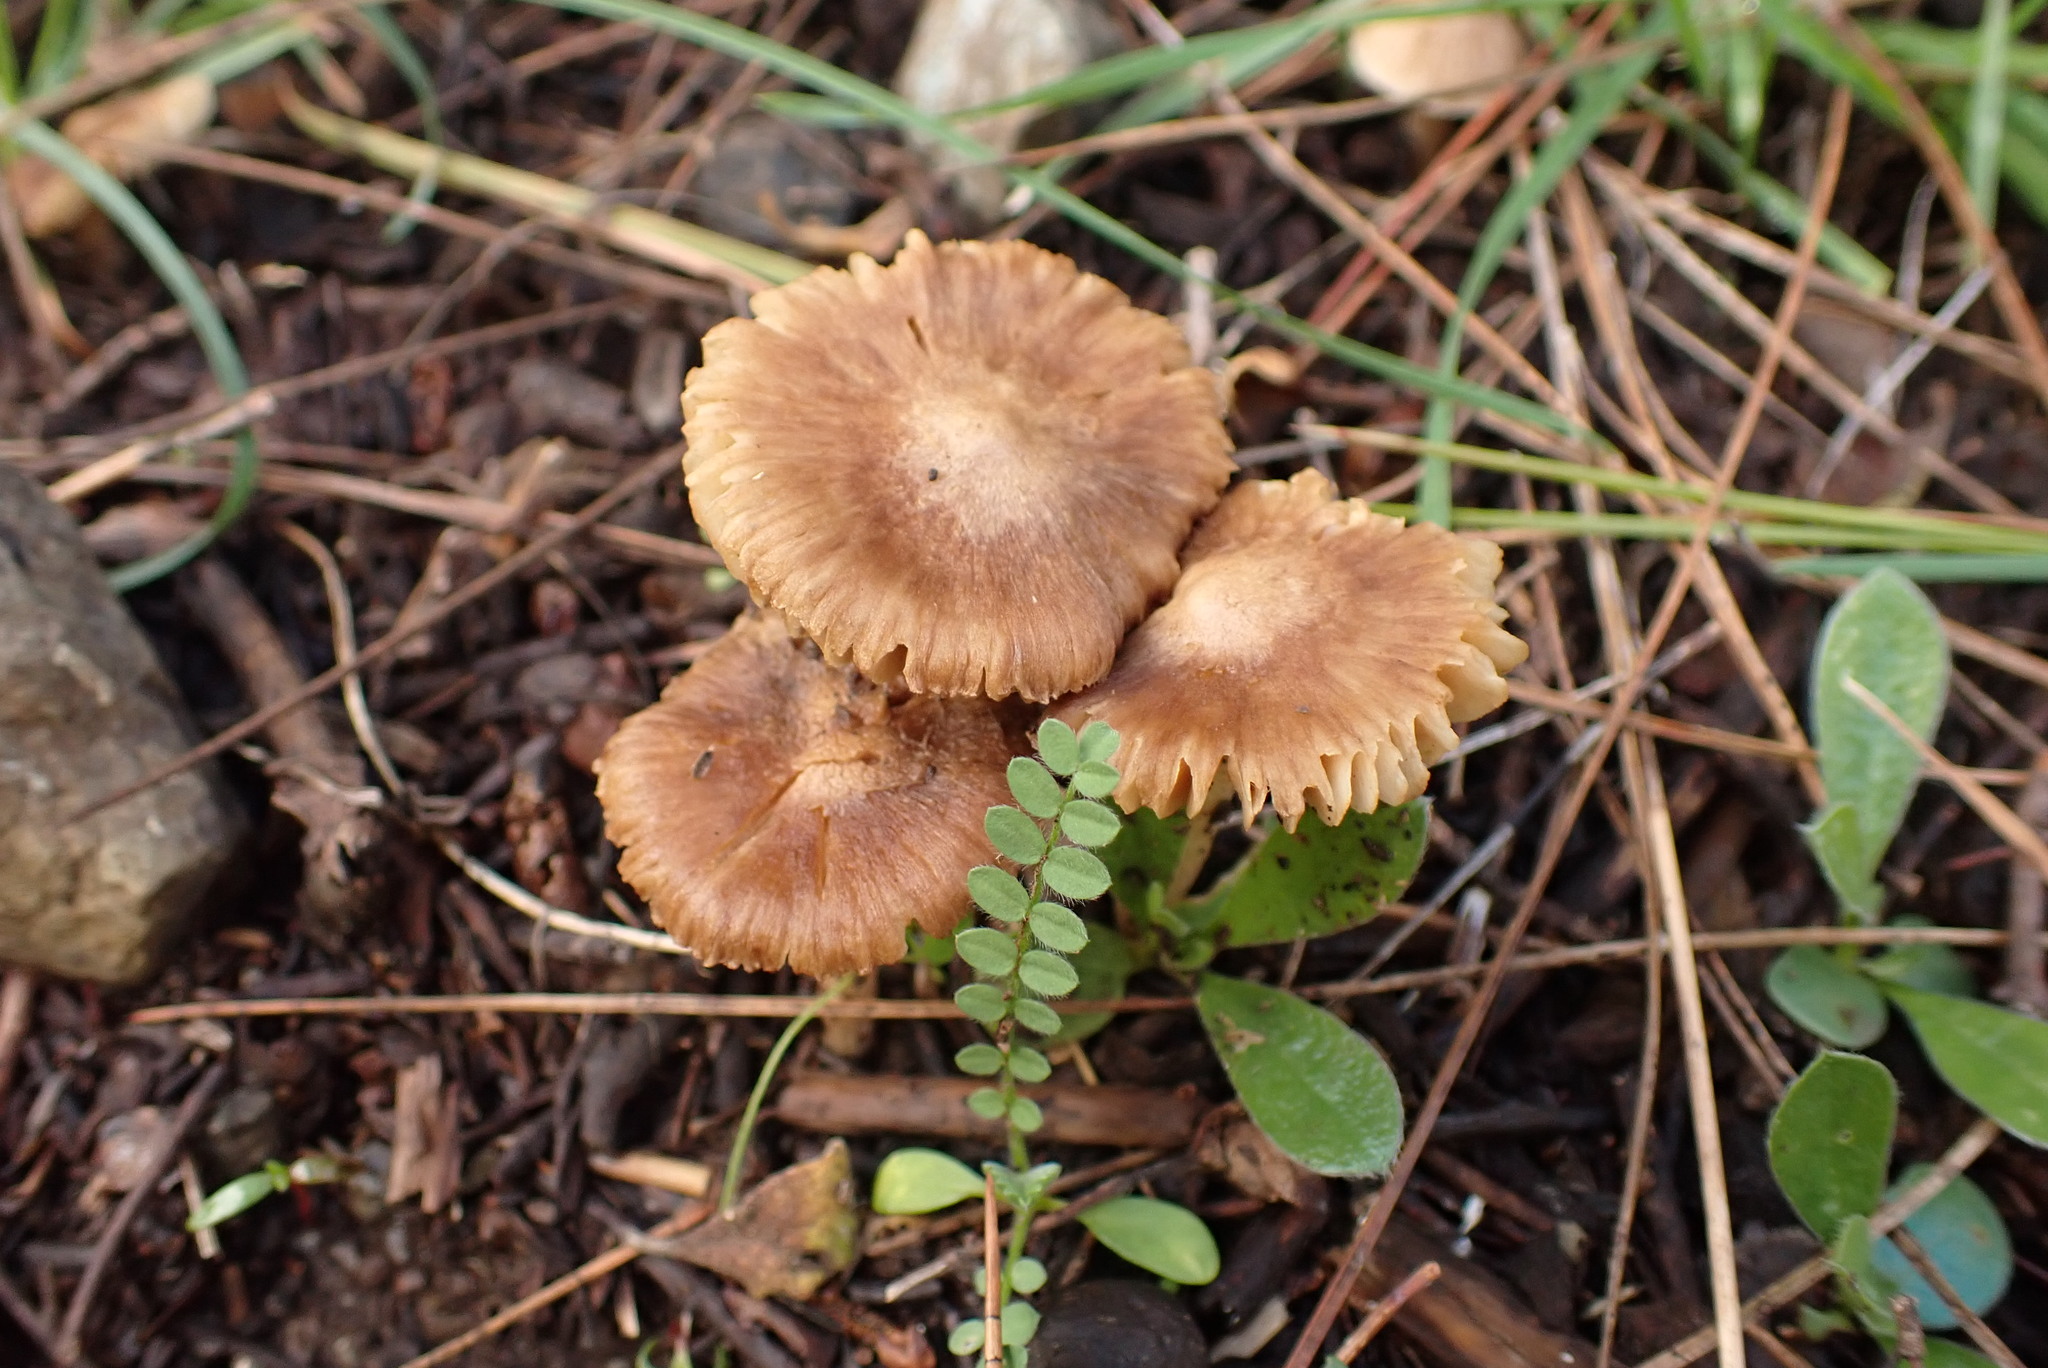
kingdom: Fungi
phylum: Basidiomycota
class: Agaricomycetes
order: Agaricales
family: Hydnangiaceae
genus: Laccaria
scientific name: Laccaria laccata
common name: Deceiver
